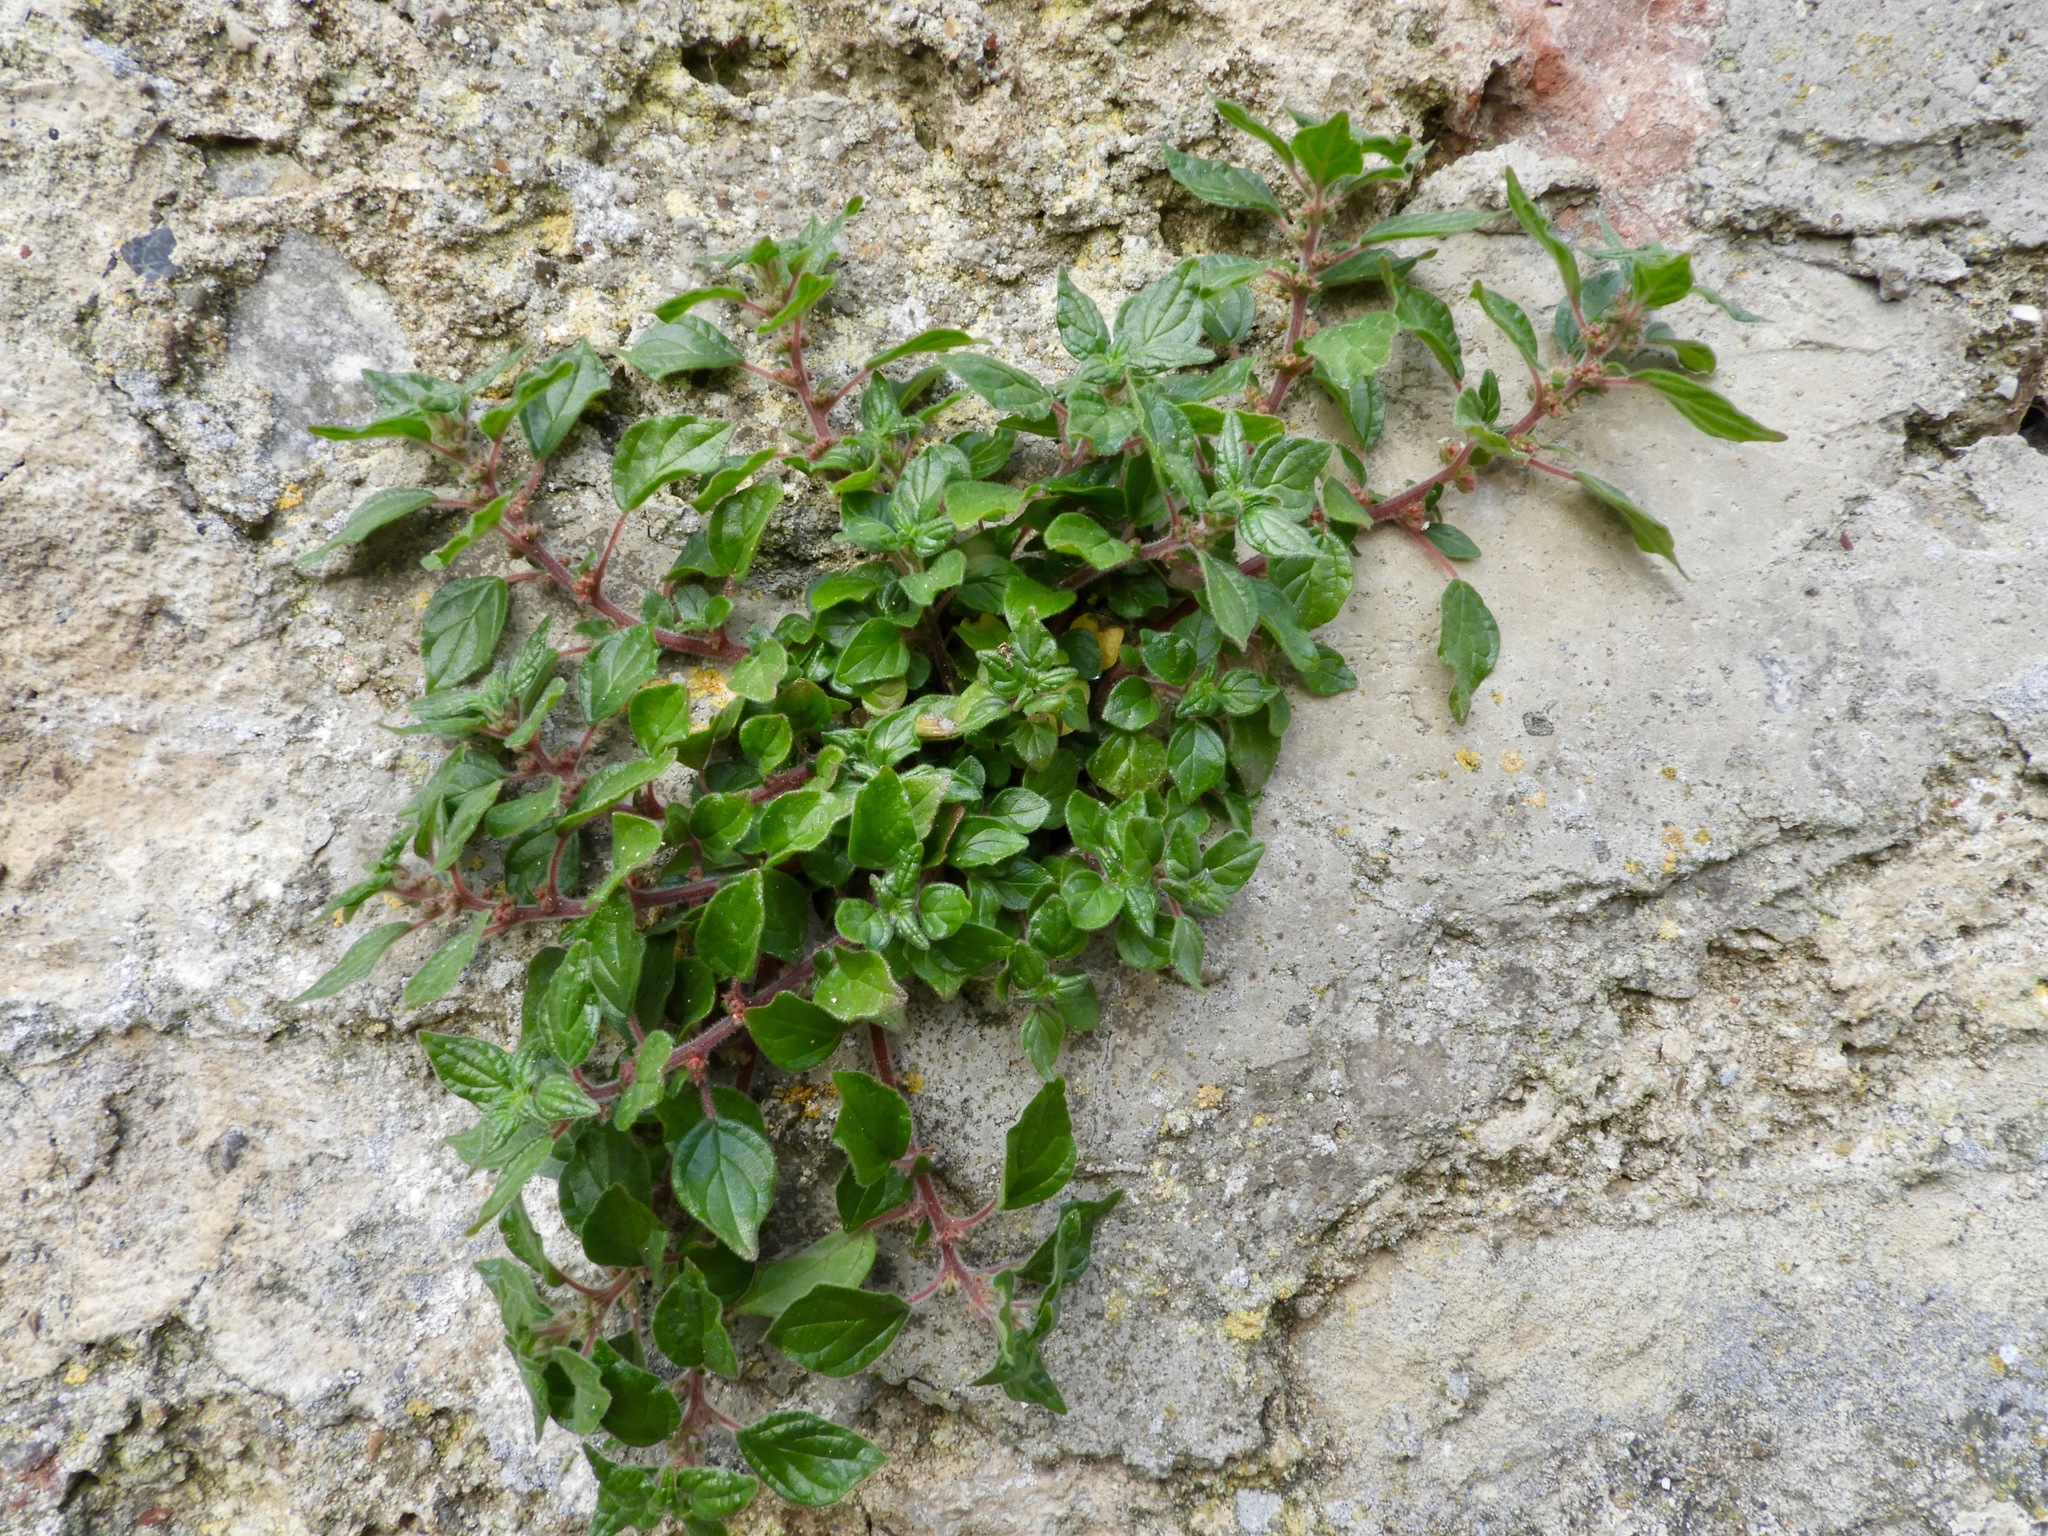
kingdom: Plantae
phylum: Tracheophyta
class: Magnoliopsida
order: Rosales
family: Urticaceae
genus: Parietaria
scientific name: Parietaria judaica
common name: Pellitory-of-the-wall
